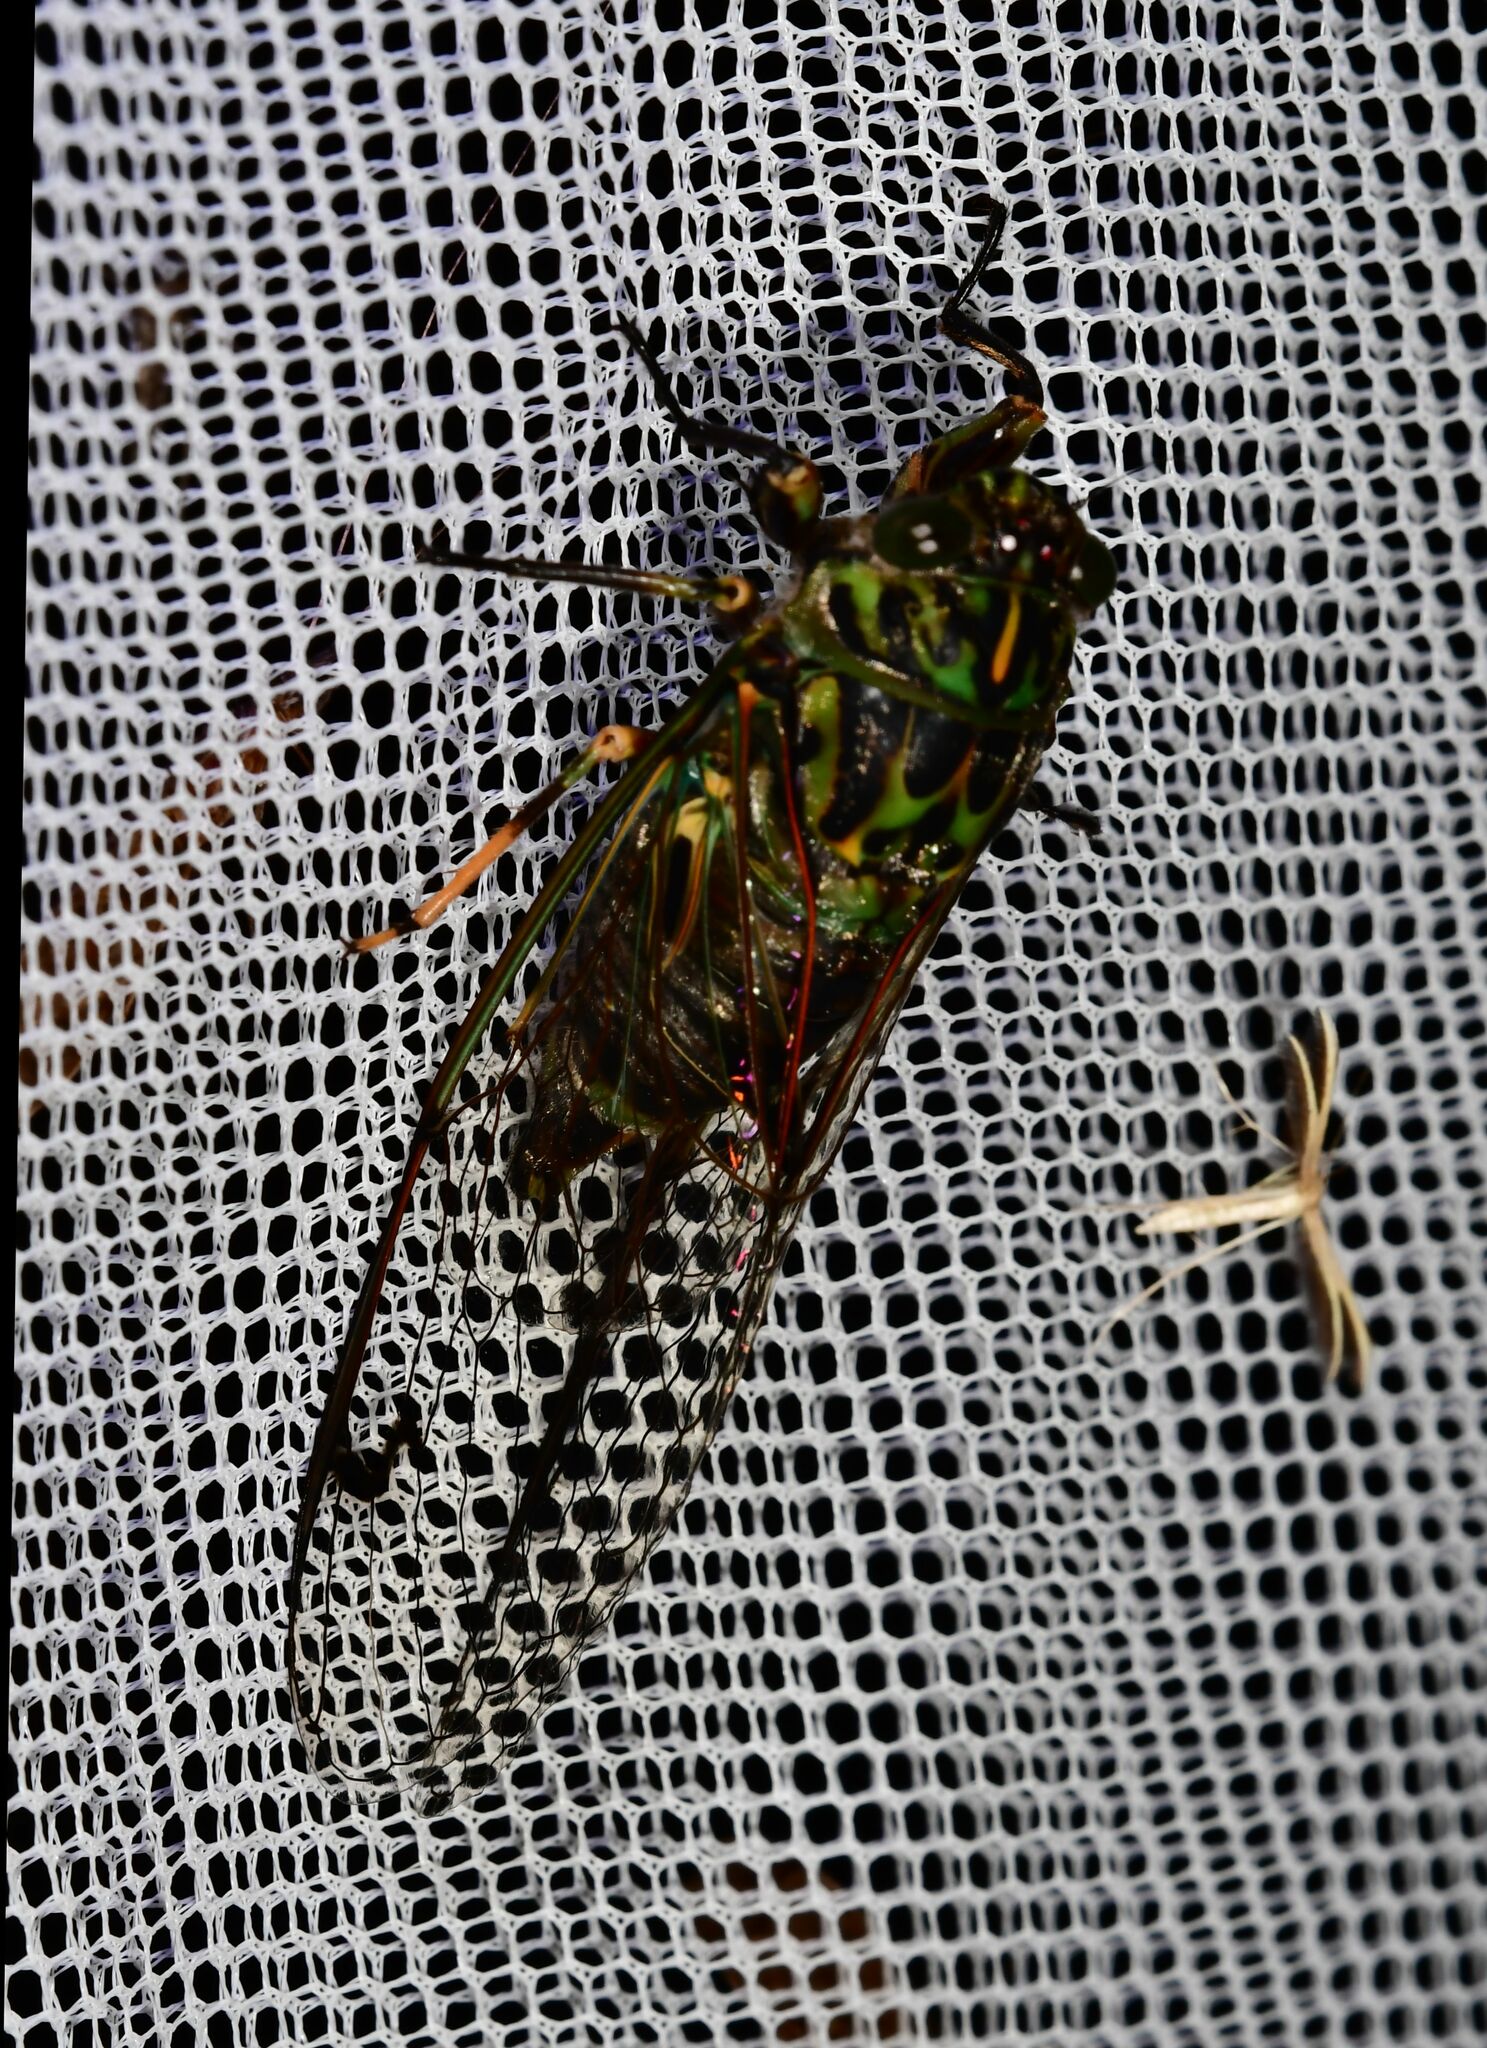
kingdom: Animalia
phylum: Arthropoda
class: Insecta
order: Hemiptera
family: Cicadidae
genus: Amphipsalta
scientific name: Amphipsalta zelandica
